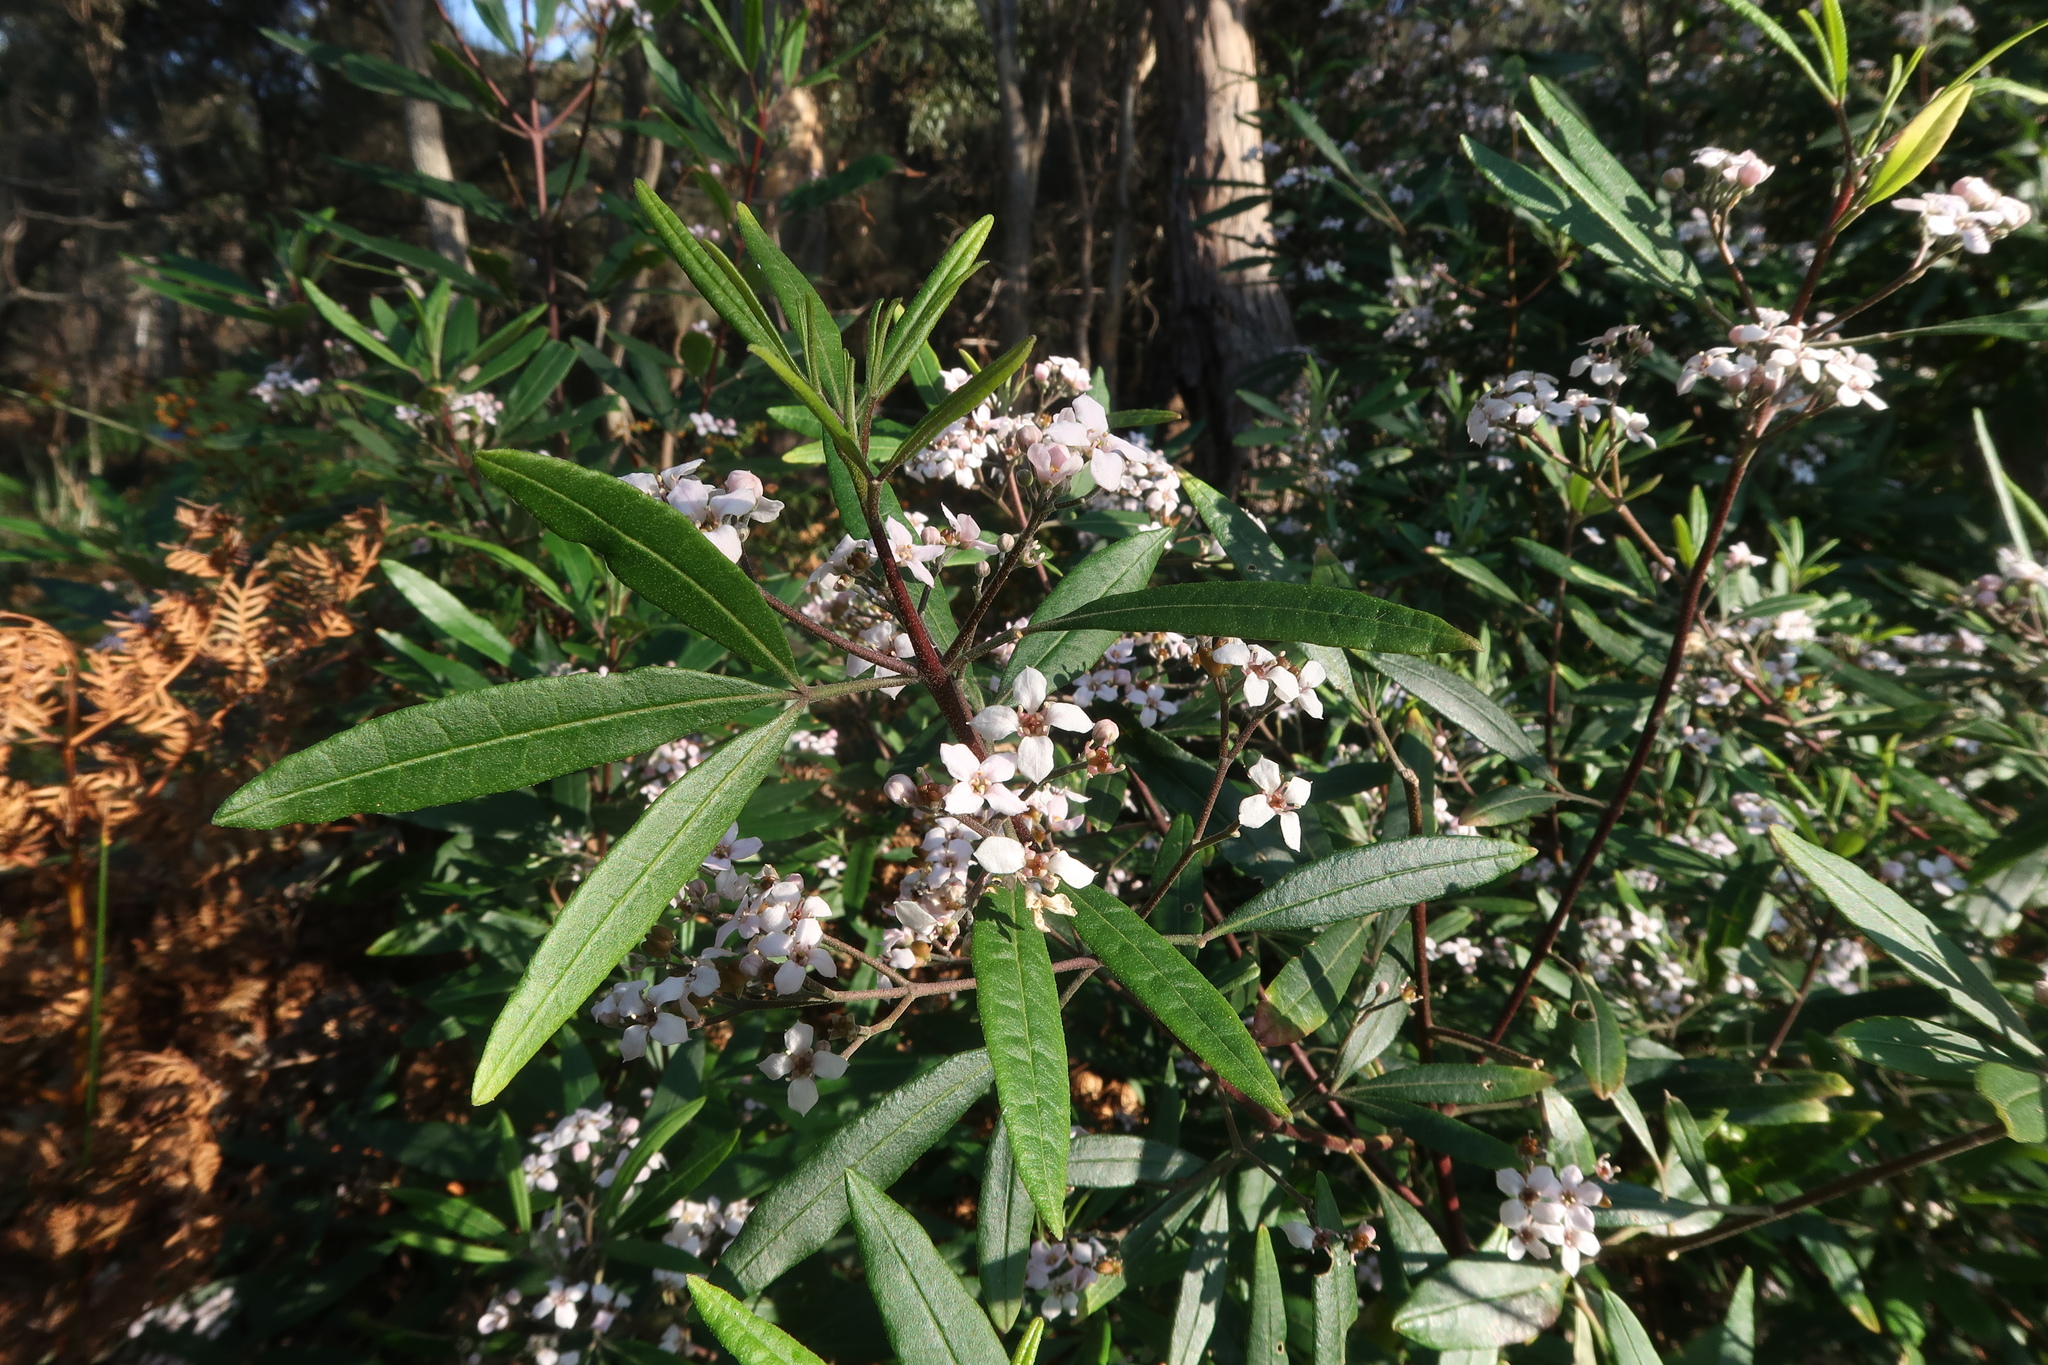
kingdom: Plantae
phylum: Tracheophyta
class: Magnoliopsida
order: Sapindales
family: Rutaceae
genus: Zieria
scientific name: Zieria arborescens
